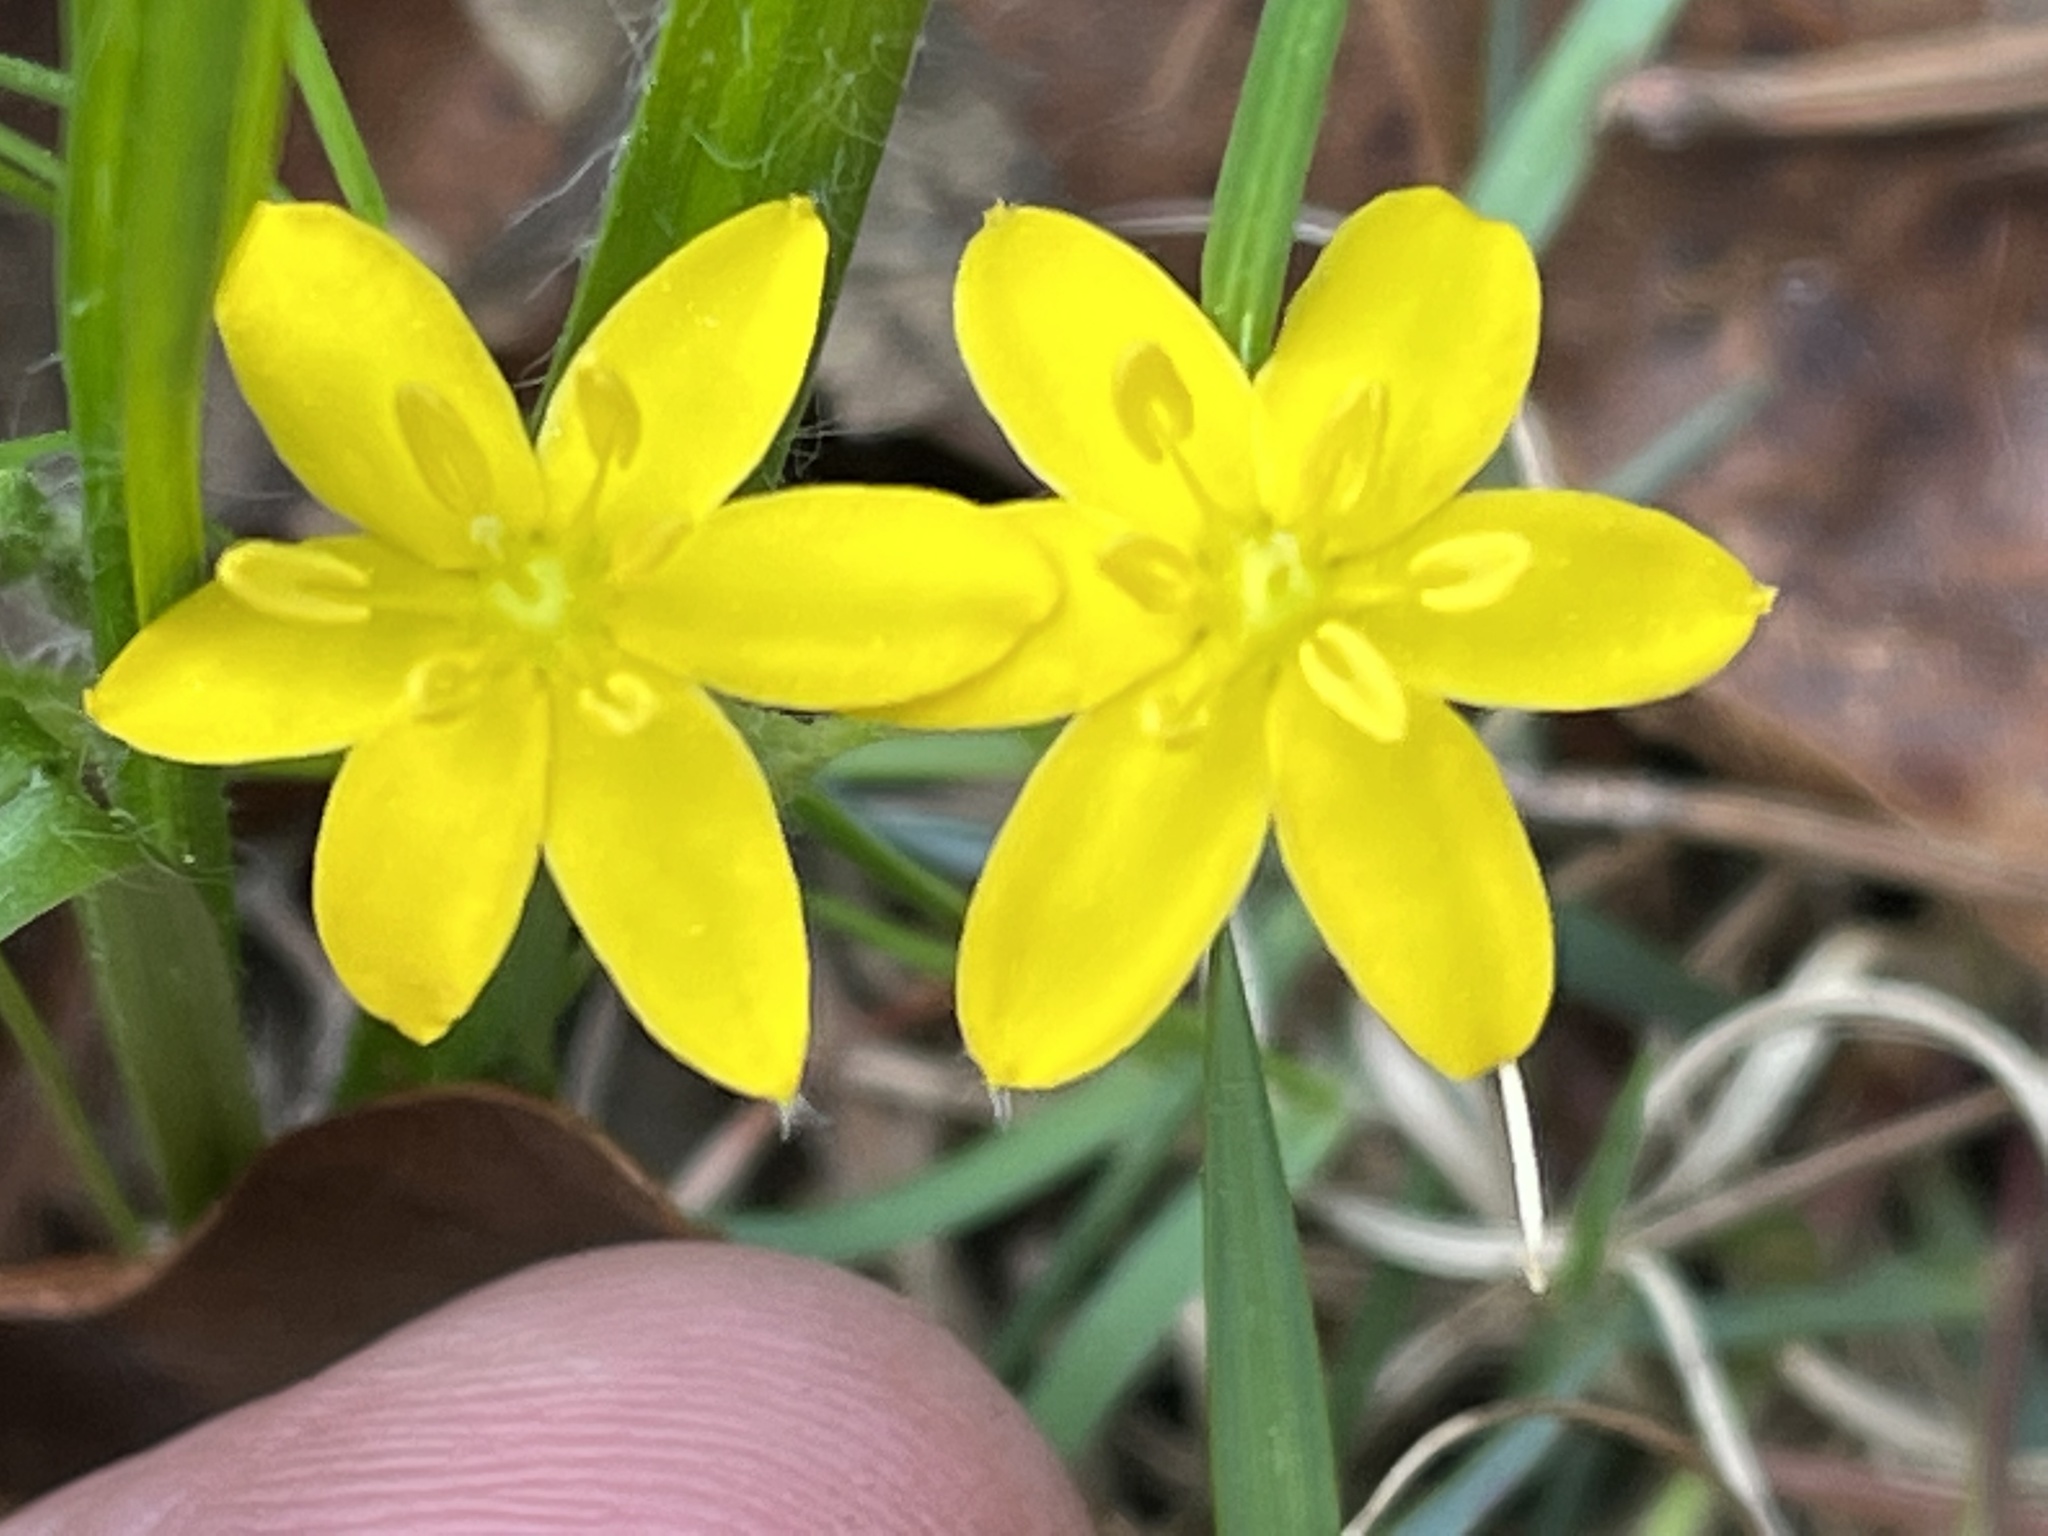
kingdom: Plantae
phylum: Tracheophyta
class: Liliopsida
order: Asparagales
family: Hypoxidaceae
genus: Hypoxis
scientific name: Hypoxis hirsuta
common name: Common goldstar
